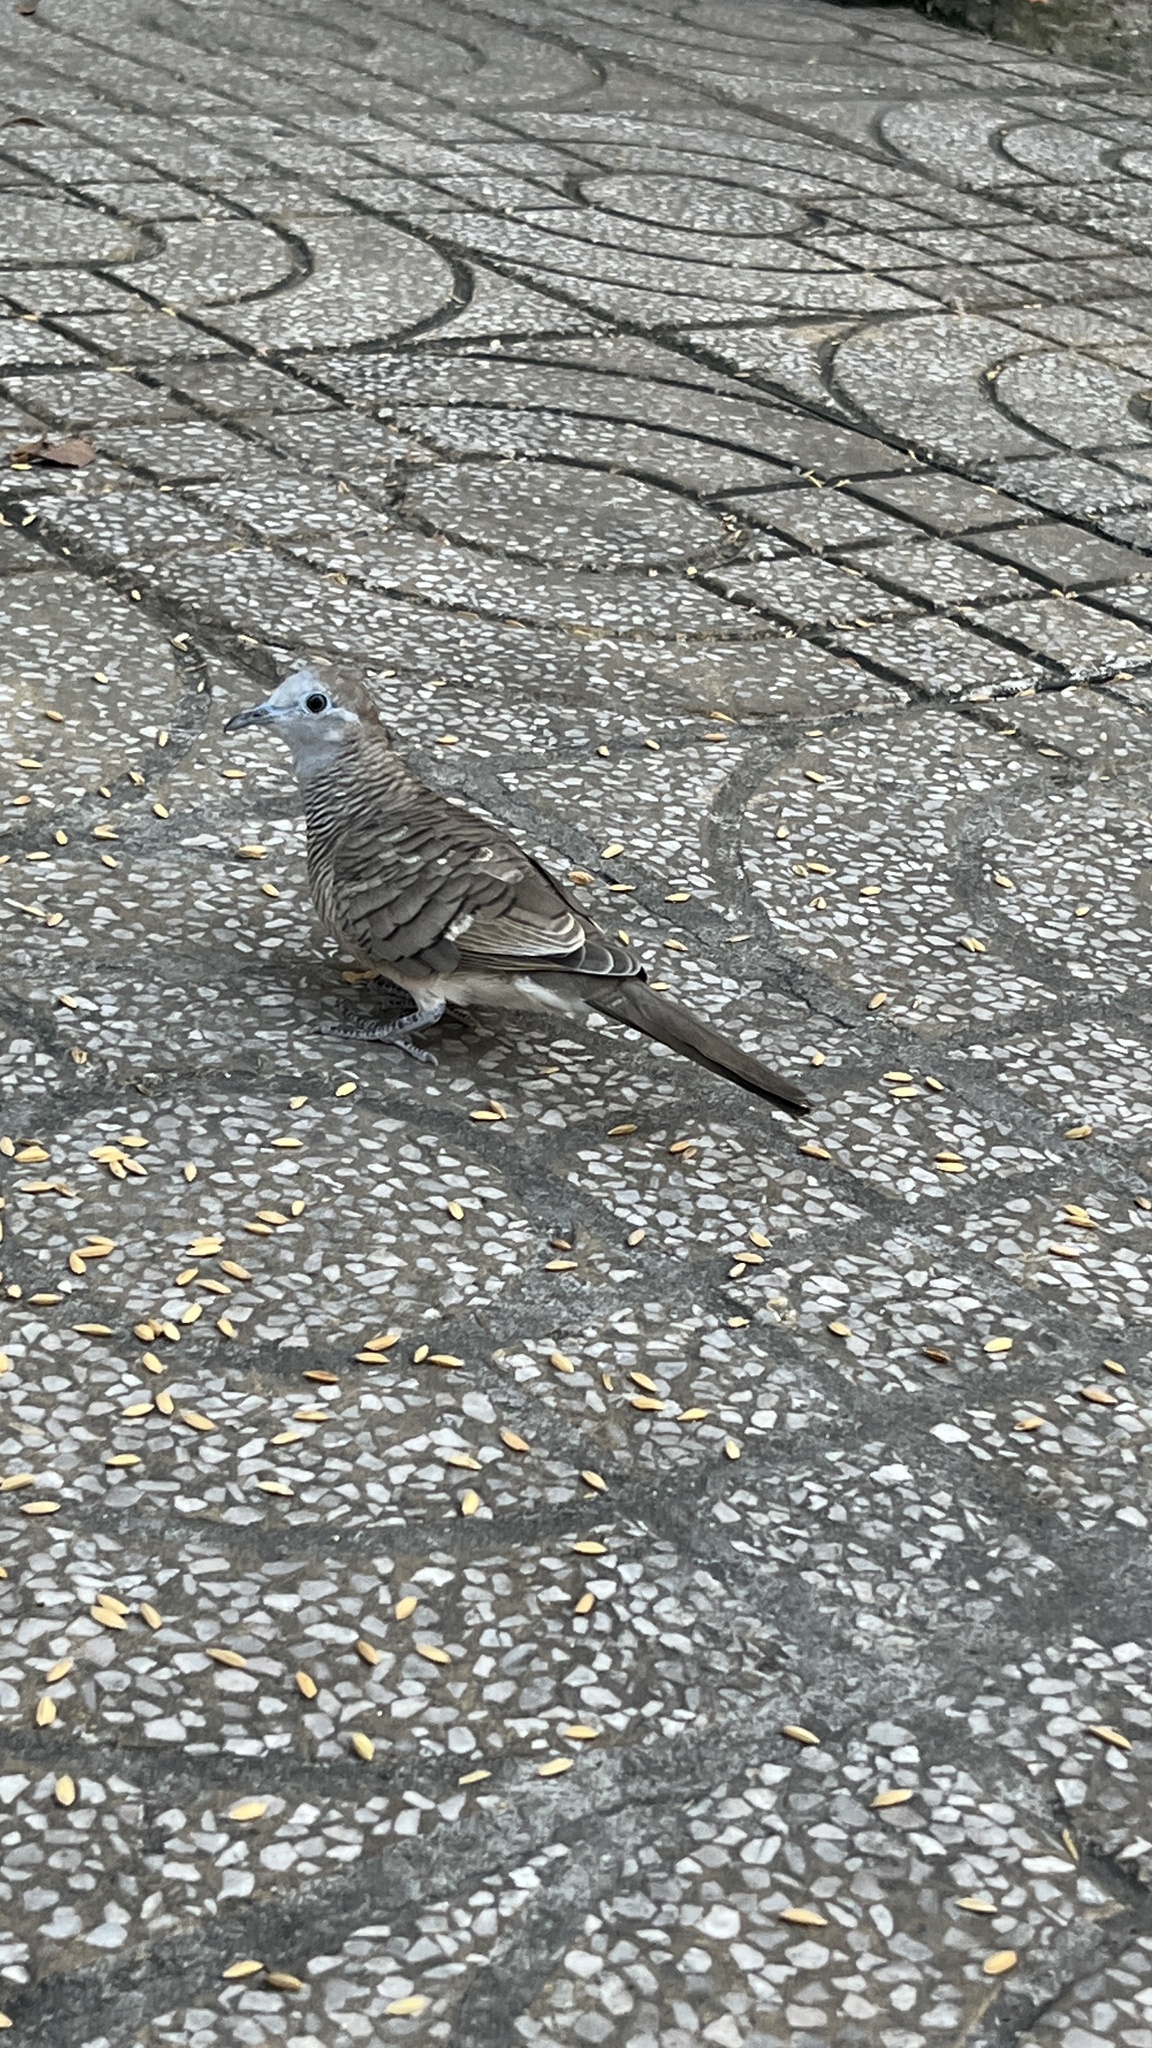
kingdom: Animalia
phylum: Chordata
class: Aves
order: Columbiformes
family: Columbidae
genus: Geopelia
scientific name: Geopelia striata
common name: Zebra dove
